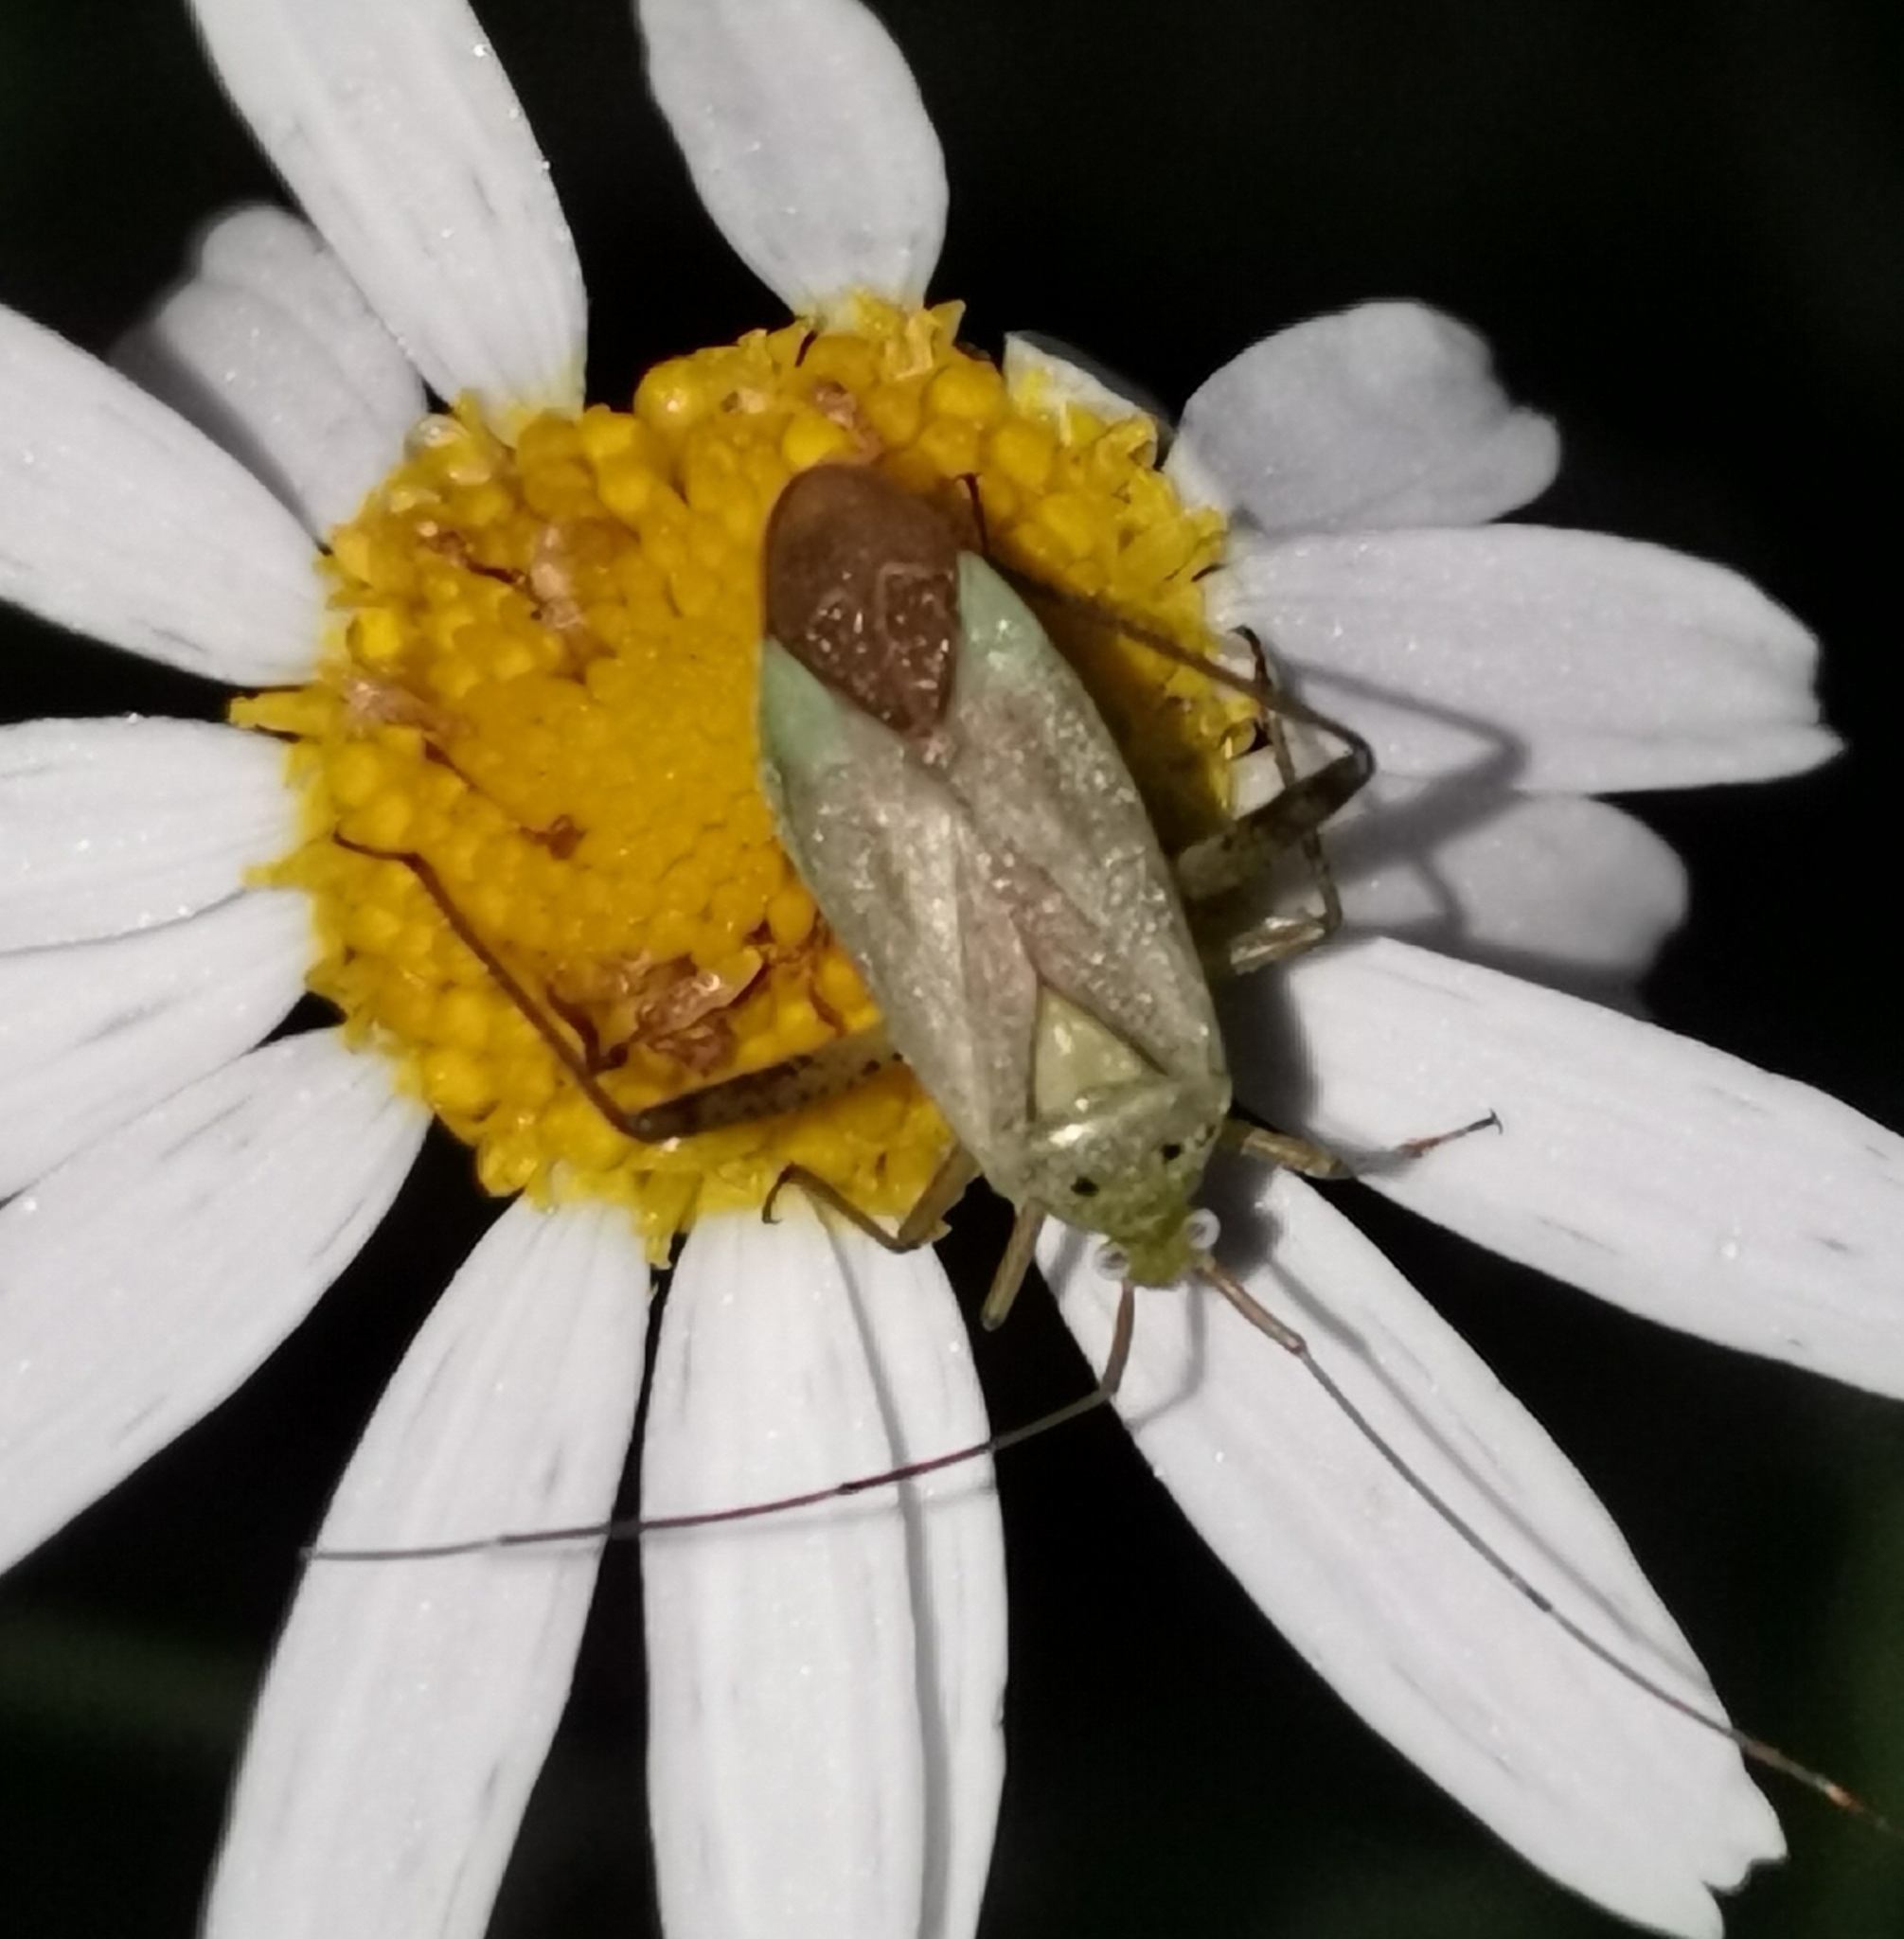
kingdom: Animalia
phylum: Arthropoda
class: Insecta
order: Hemiptera
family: Miridae
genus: Adelphocoris
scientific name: Adelphocoris quadripunctatus
